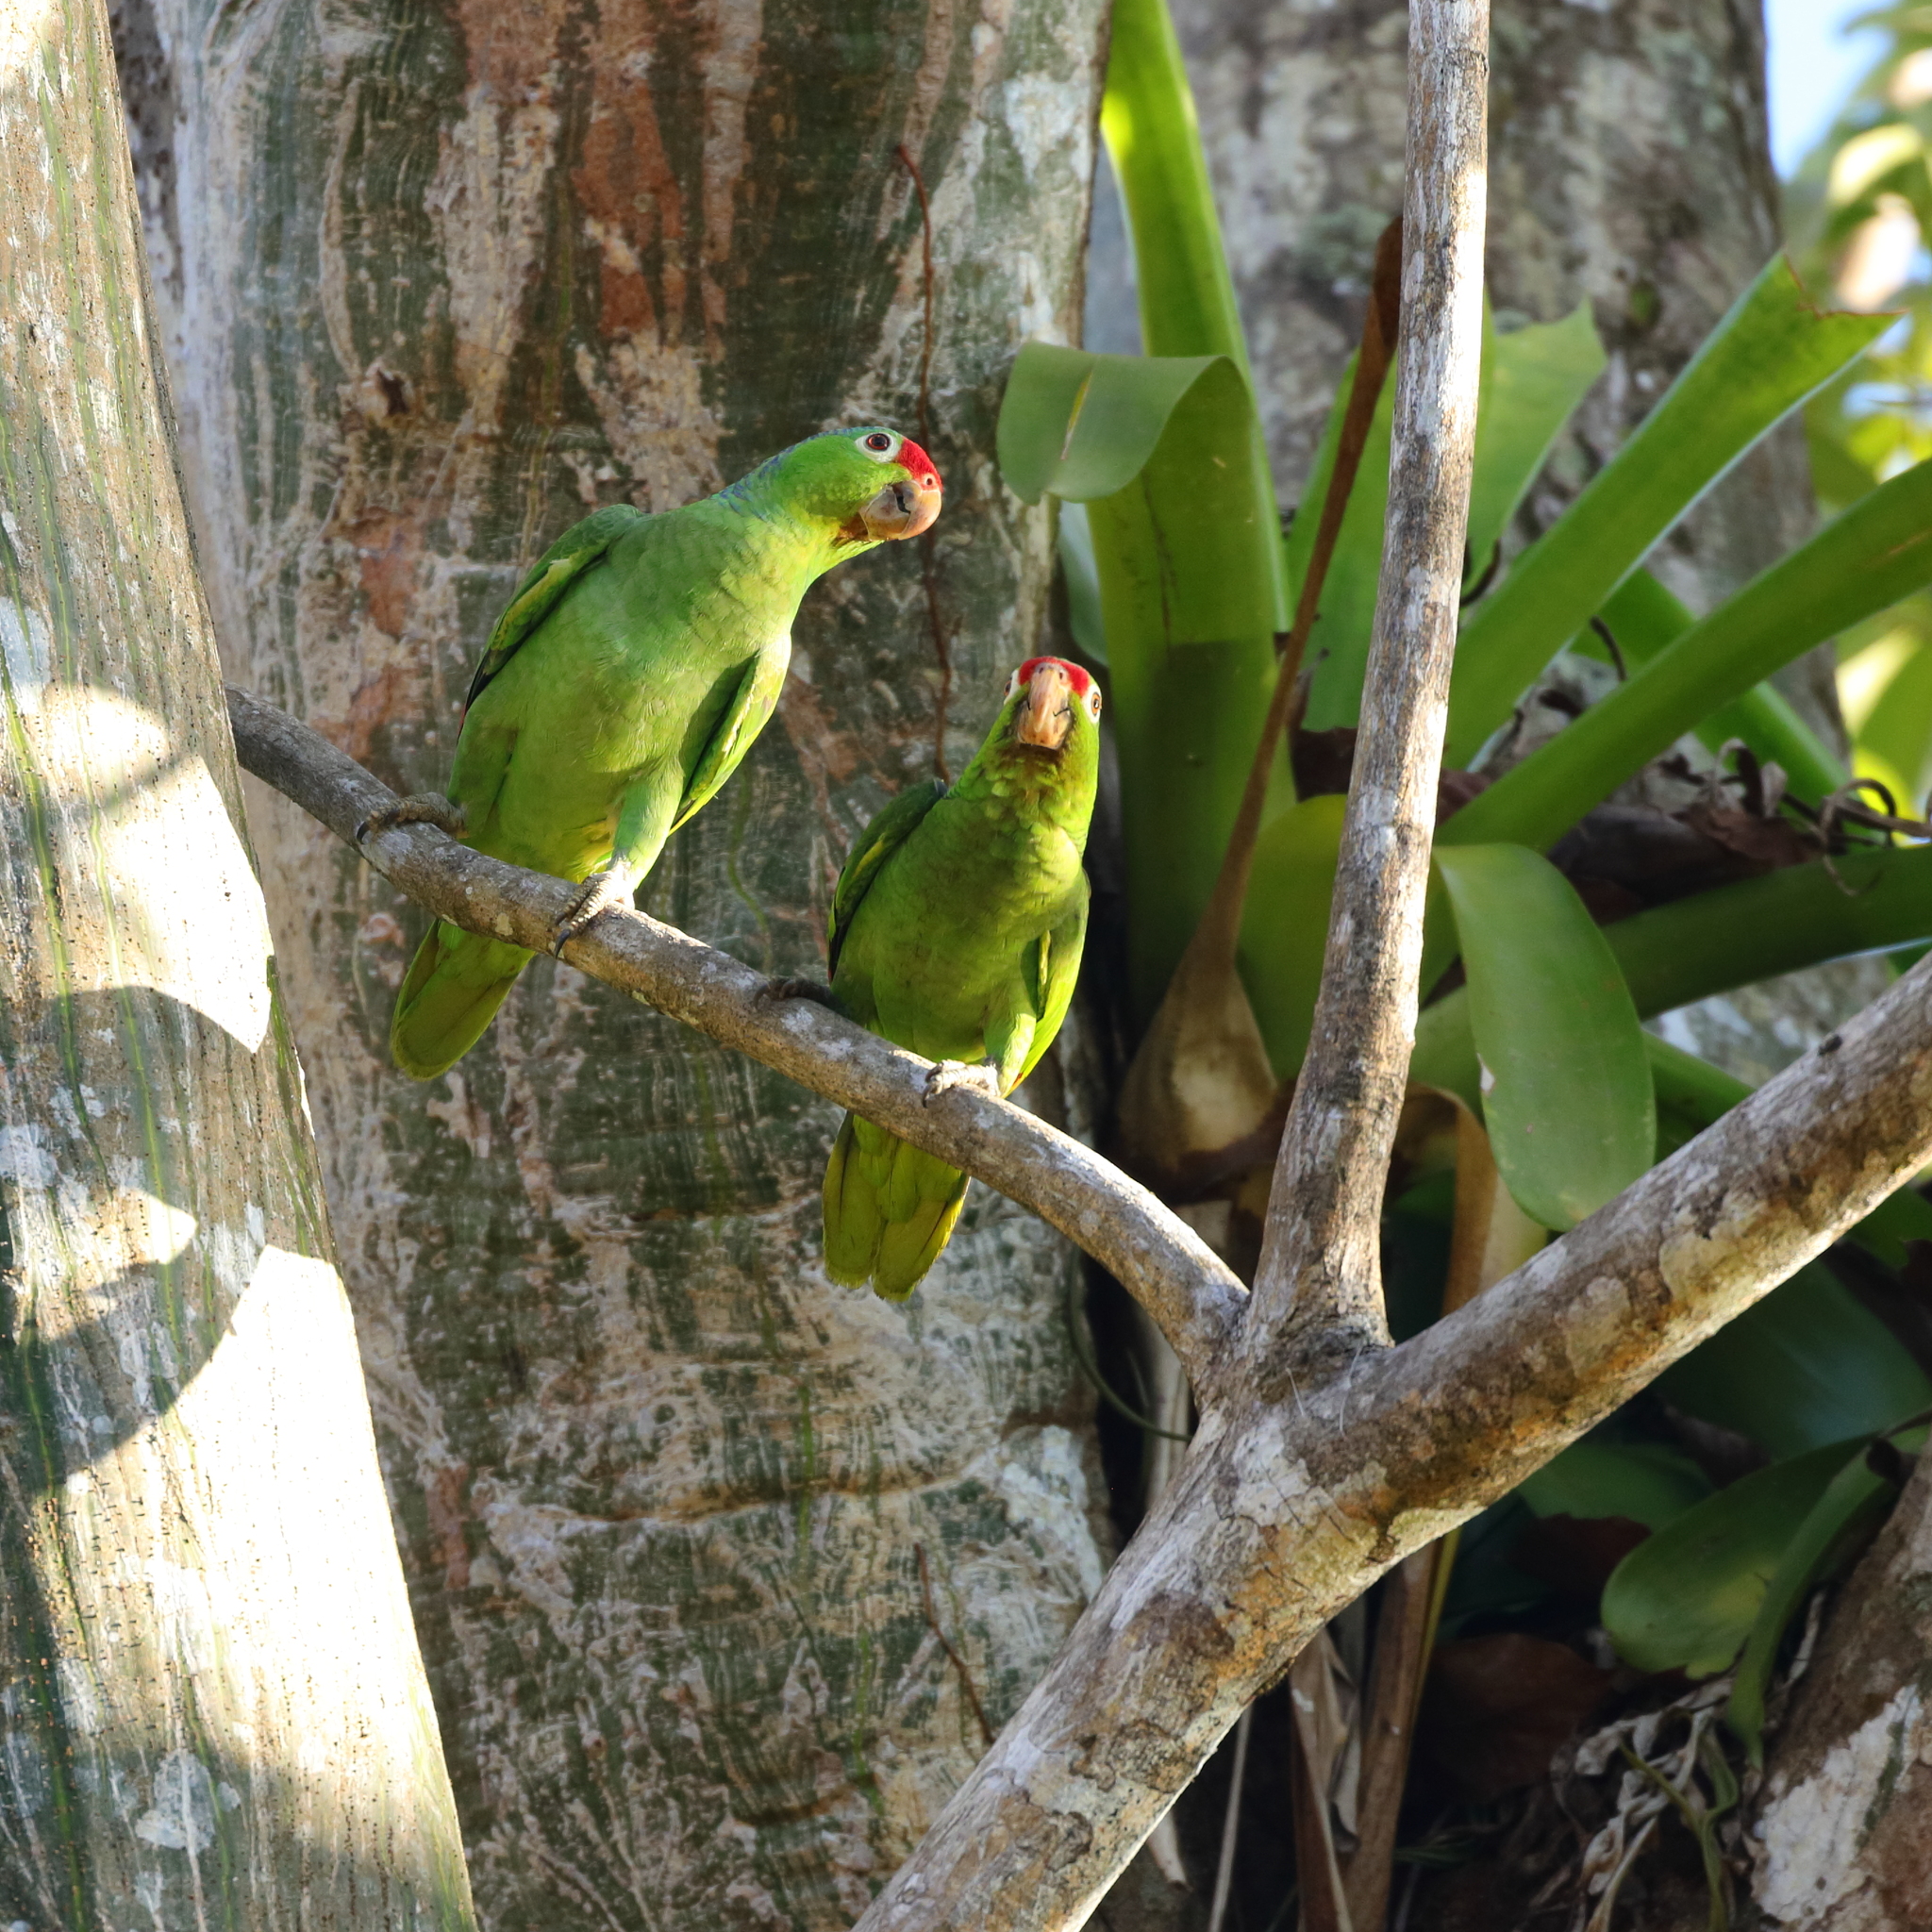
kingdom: Animalia
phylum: Chordata
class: Aves
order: Psittaciformes
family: Psittacidae
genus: Amazona
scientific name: Amazona autumnalis
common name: Red-lored amazon
